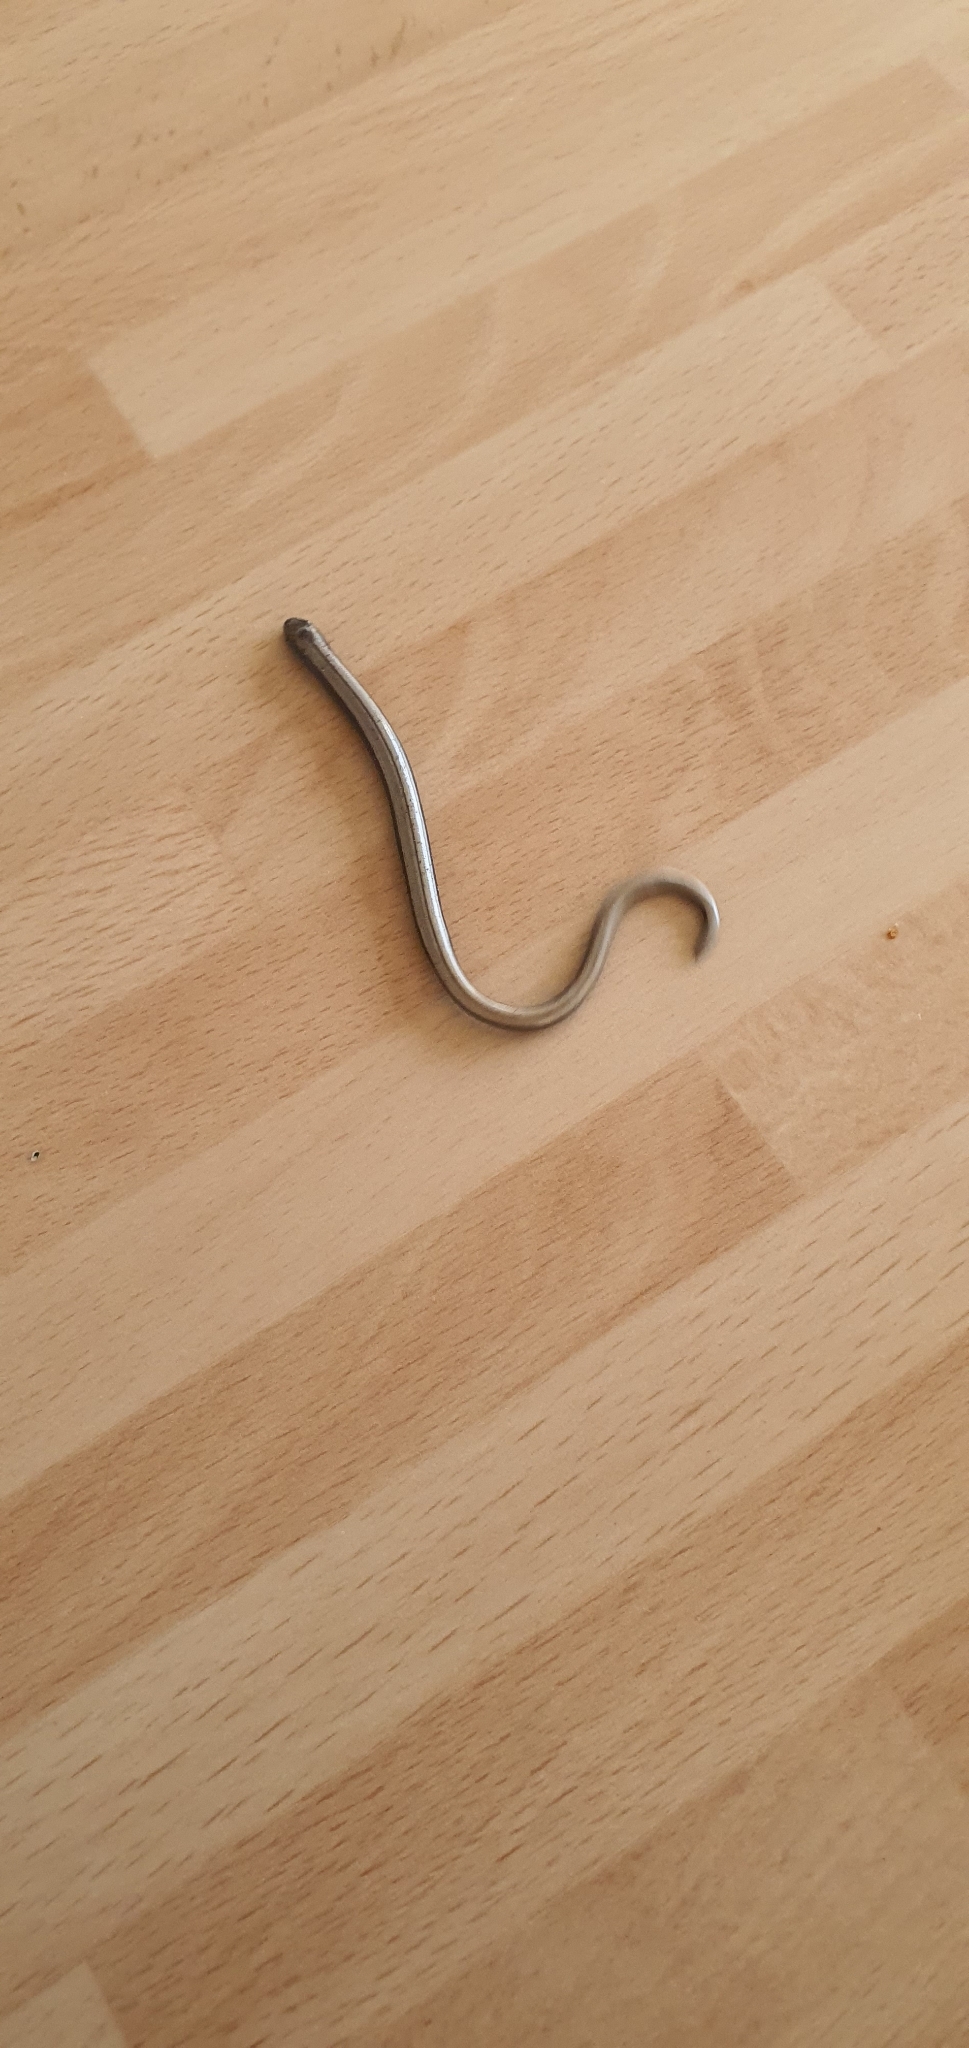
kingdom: Animalia
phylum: Chordata
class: Squamata
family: Anguidae
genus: Anguis
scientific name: Anguis fragilis
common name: Slow worm
